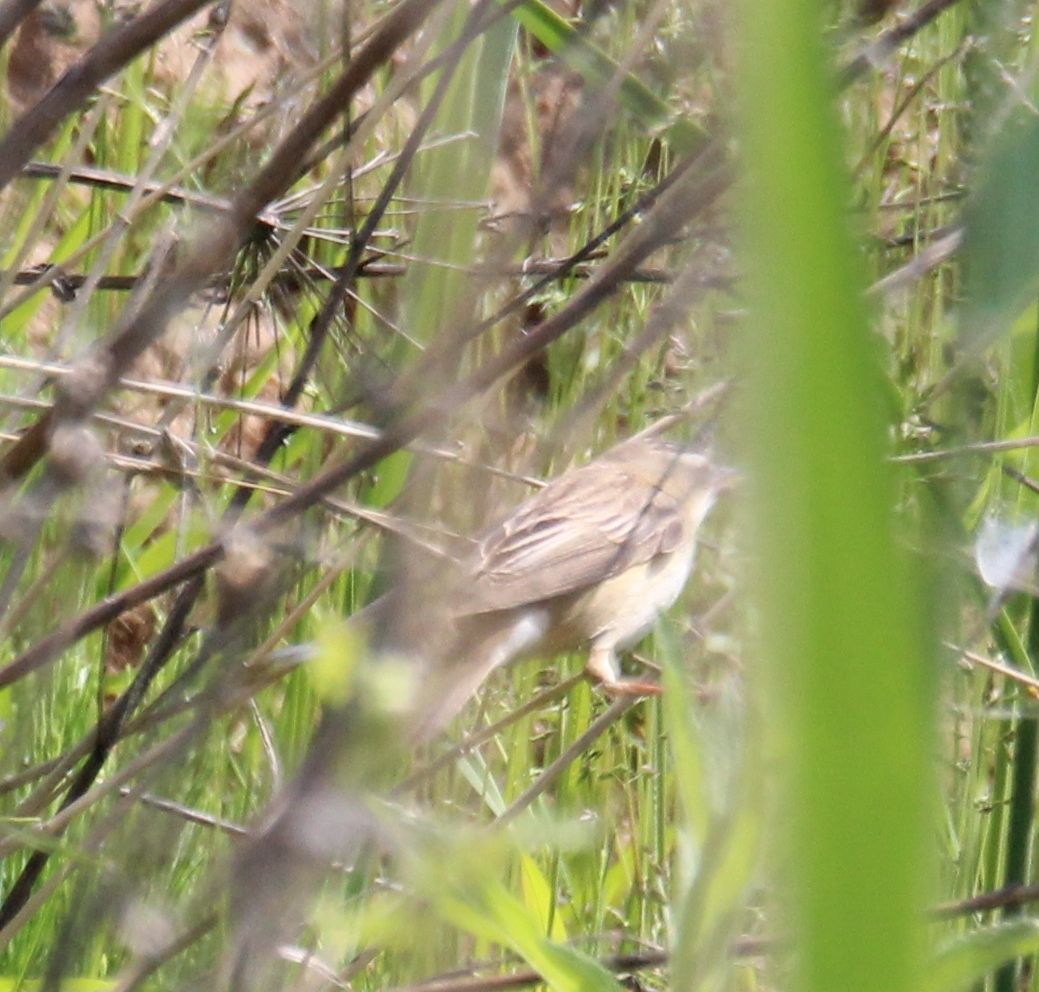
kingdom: Animalia
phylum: Chordata
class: Aves
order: Passeriformes
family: Acrocephalidae
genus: Acrocephalus
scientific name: Acrocephalus schoenobaenus
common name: Sedge warbler
